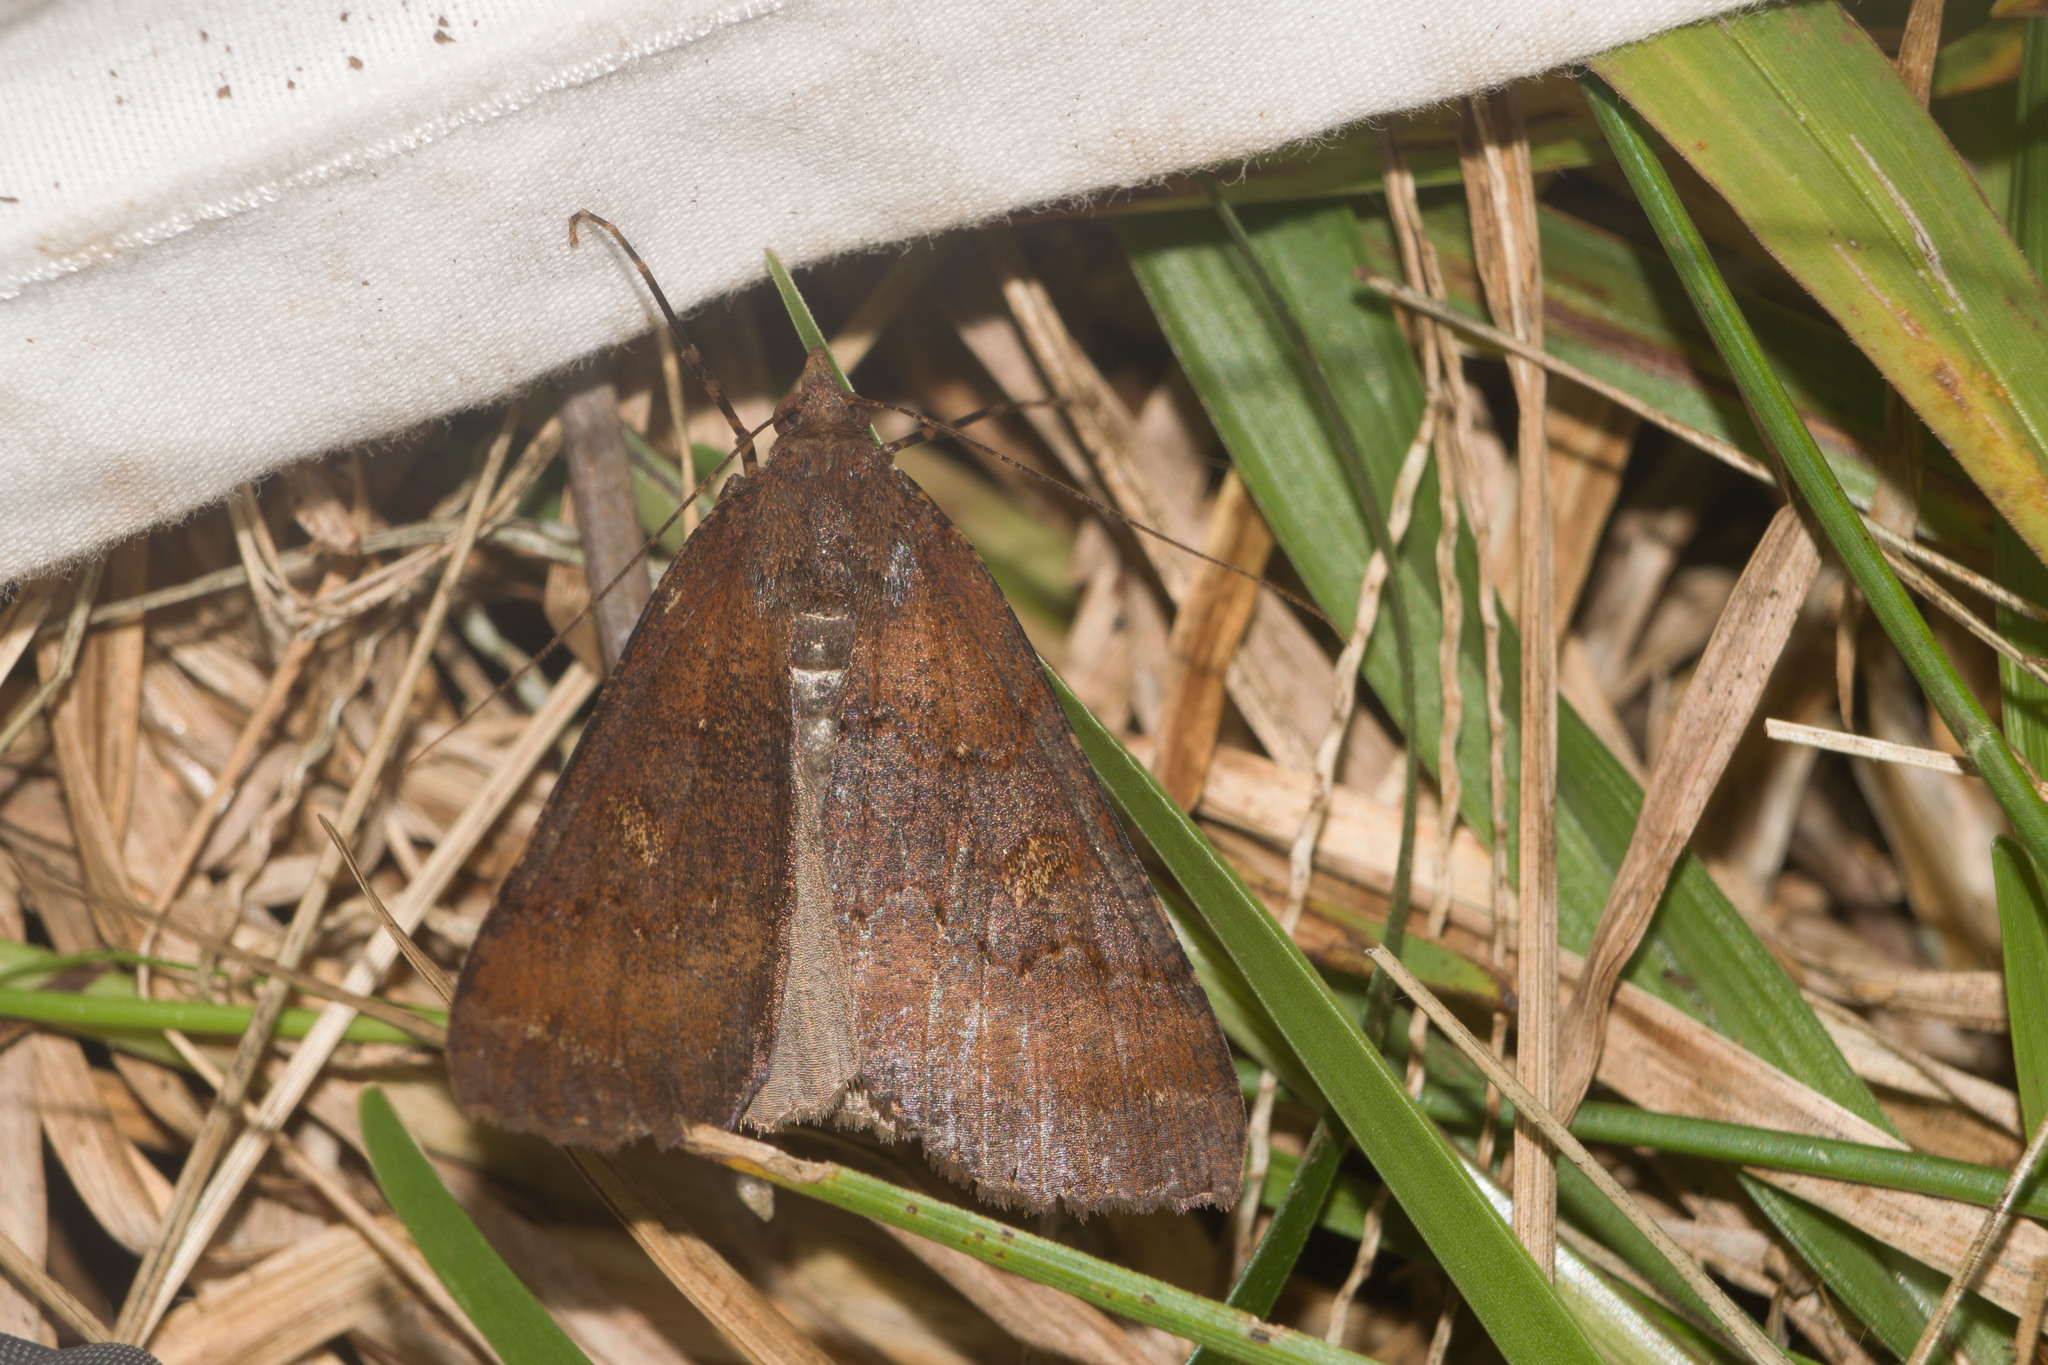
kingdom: Animalia
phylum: Arthropoda
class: Insecta
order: Lepidoptera
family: Geometridae
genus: Scotorythra
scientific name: Scotorythra rara
